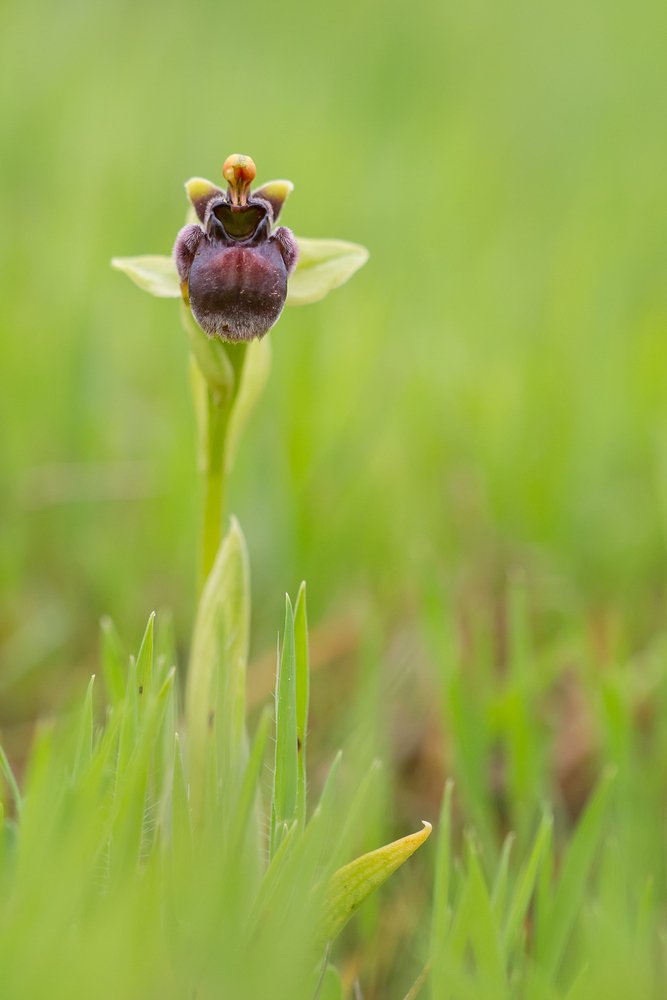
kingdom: Plantae
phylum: Tracheophyta
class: Liliopsida
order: Asparagales
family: Orchidaceae
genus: Ophrys
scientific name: Ophrys bombyliflora
